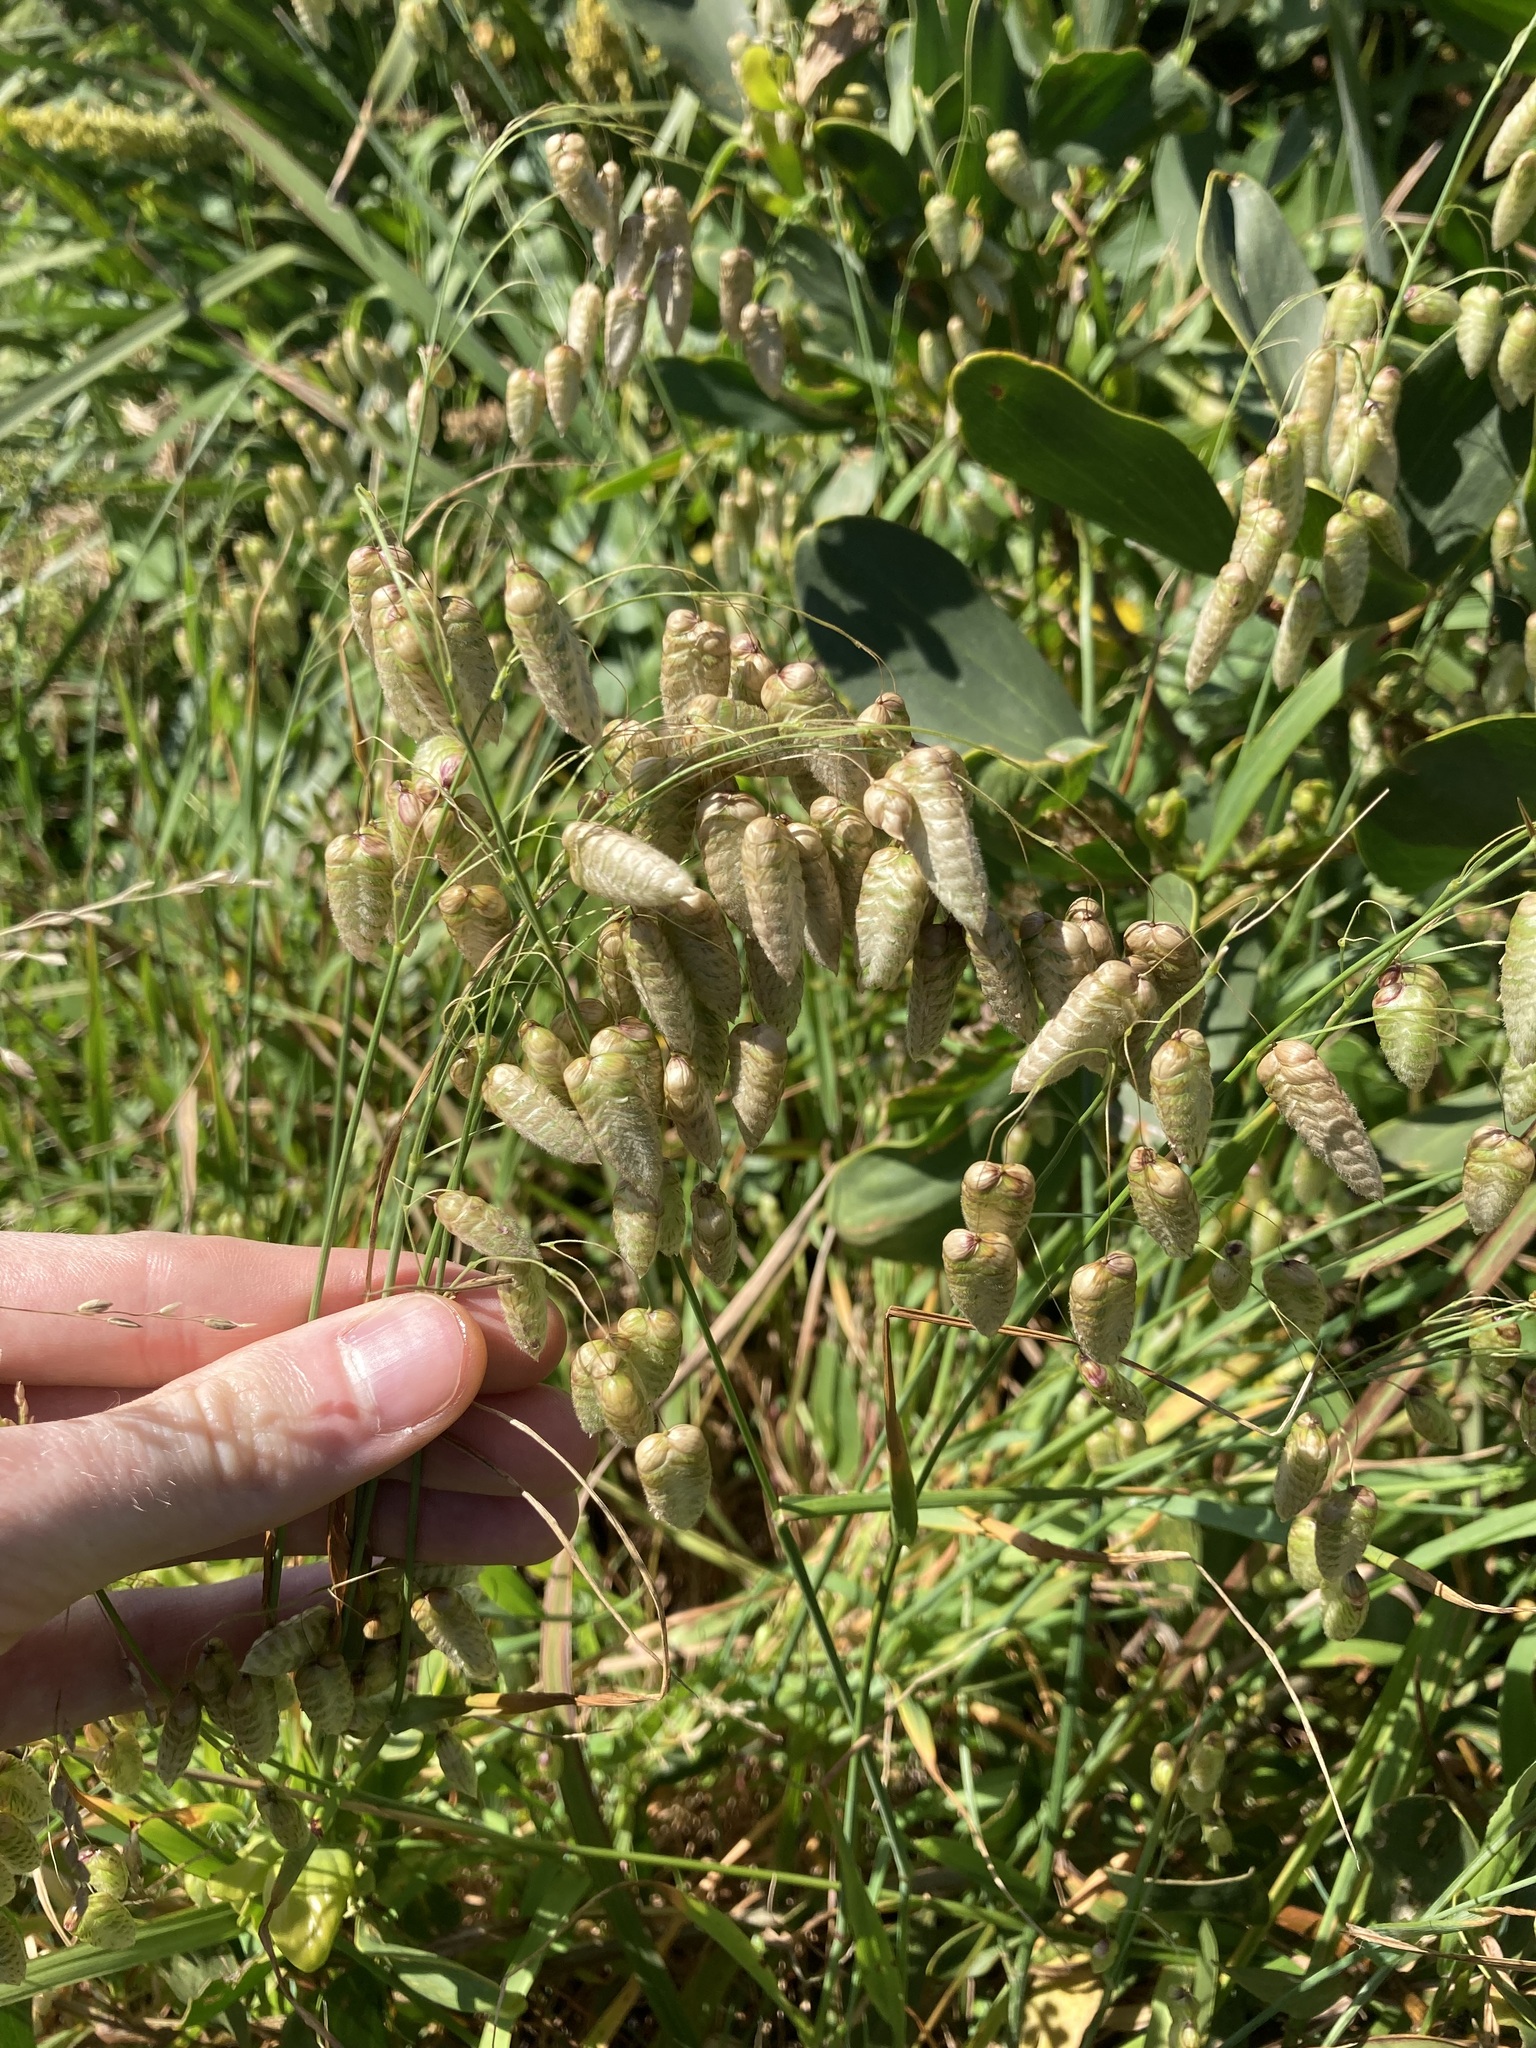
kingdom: Plantae
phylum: Tracheophyta
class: Liliopsida
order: Poales
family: Poaceae
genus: Briza
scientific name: Briza maxima
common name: Big quakinggrass
